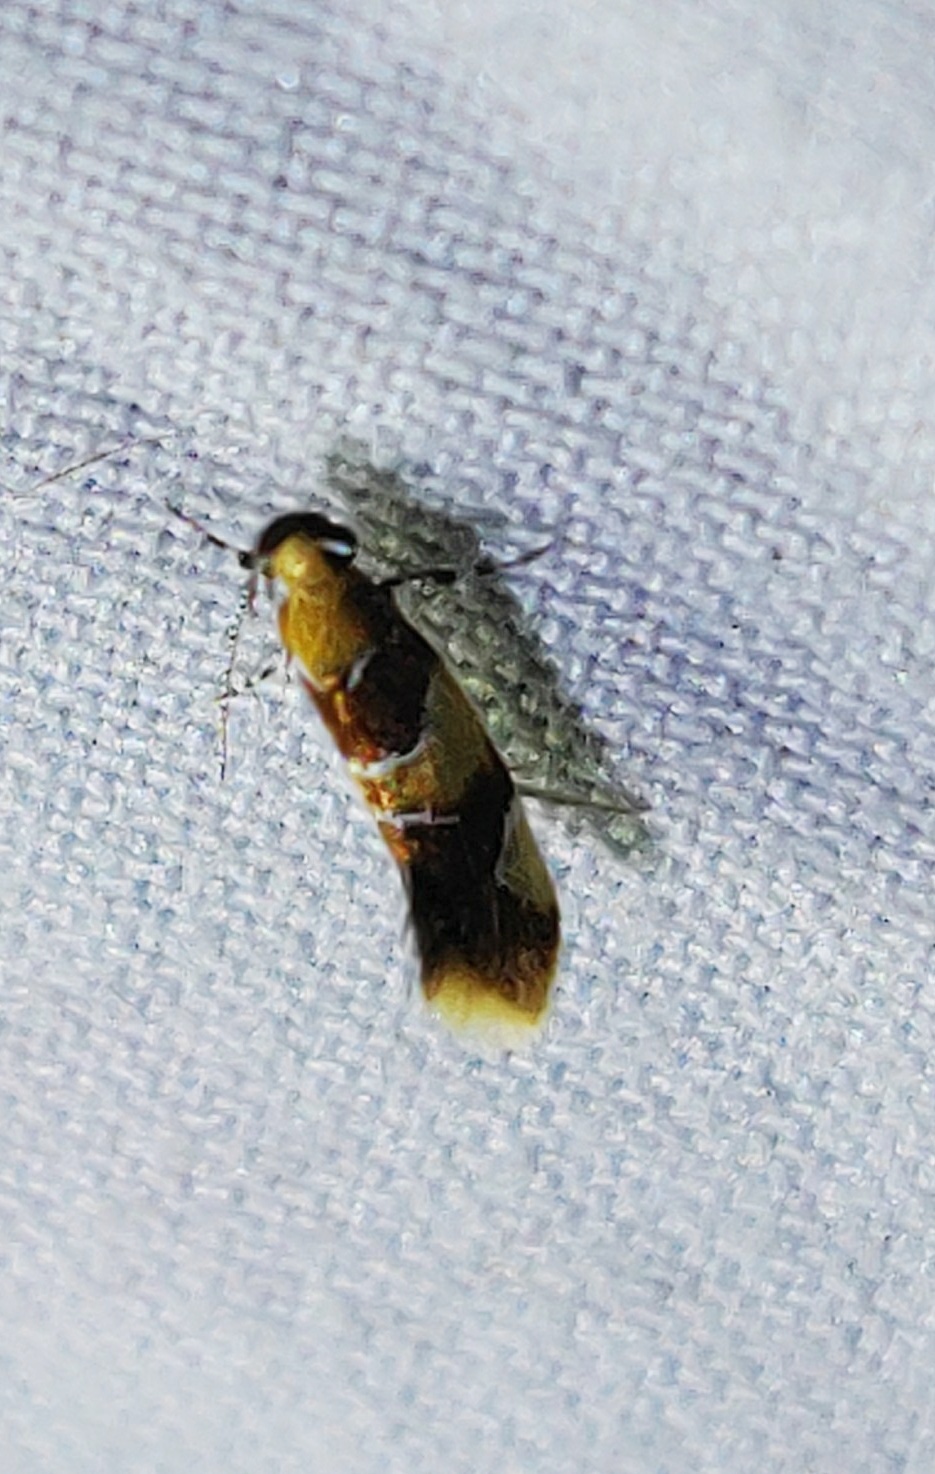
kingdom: Animalia
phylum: Arthropoda
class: Insecta
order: Lepidoptera
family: Oecophoridae
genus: Callima
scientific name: Callima argenticinctella
